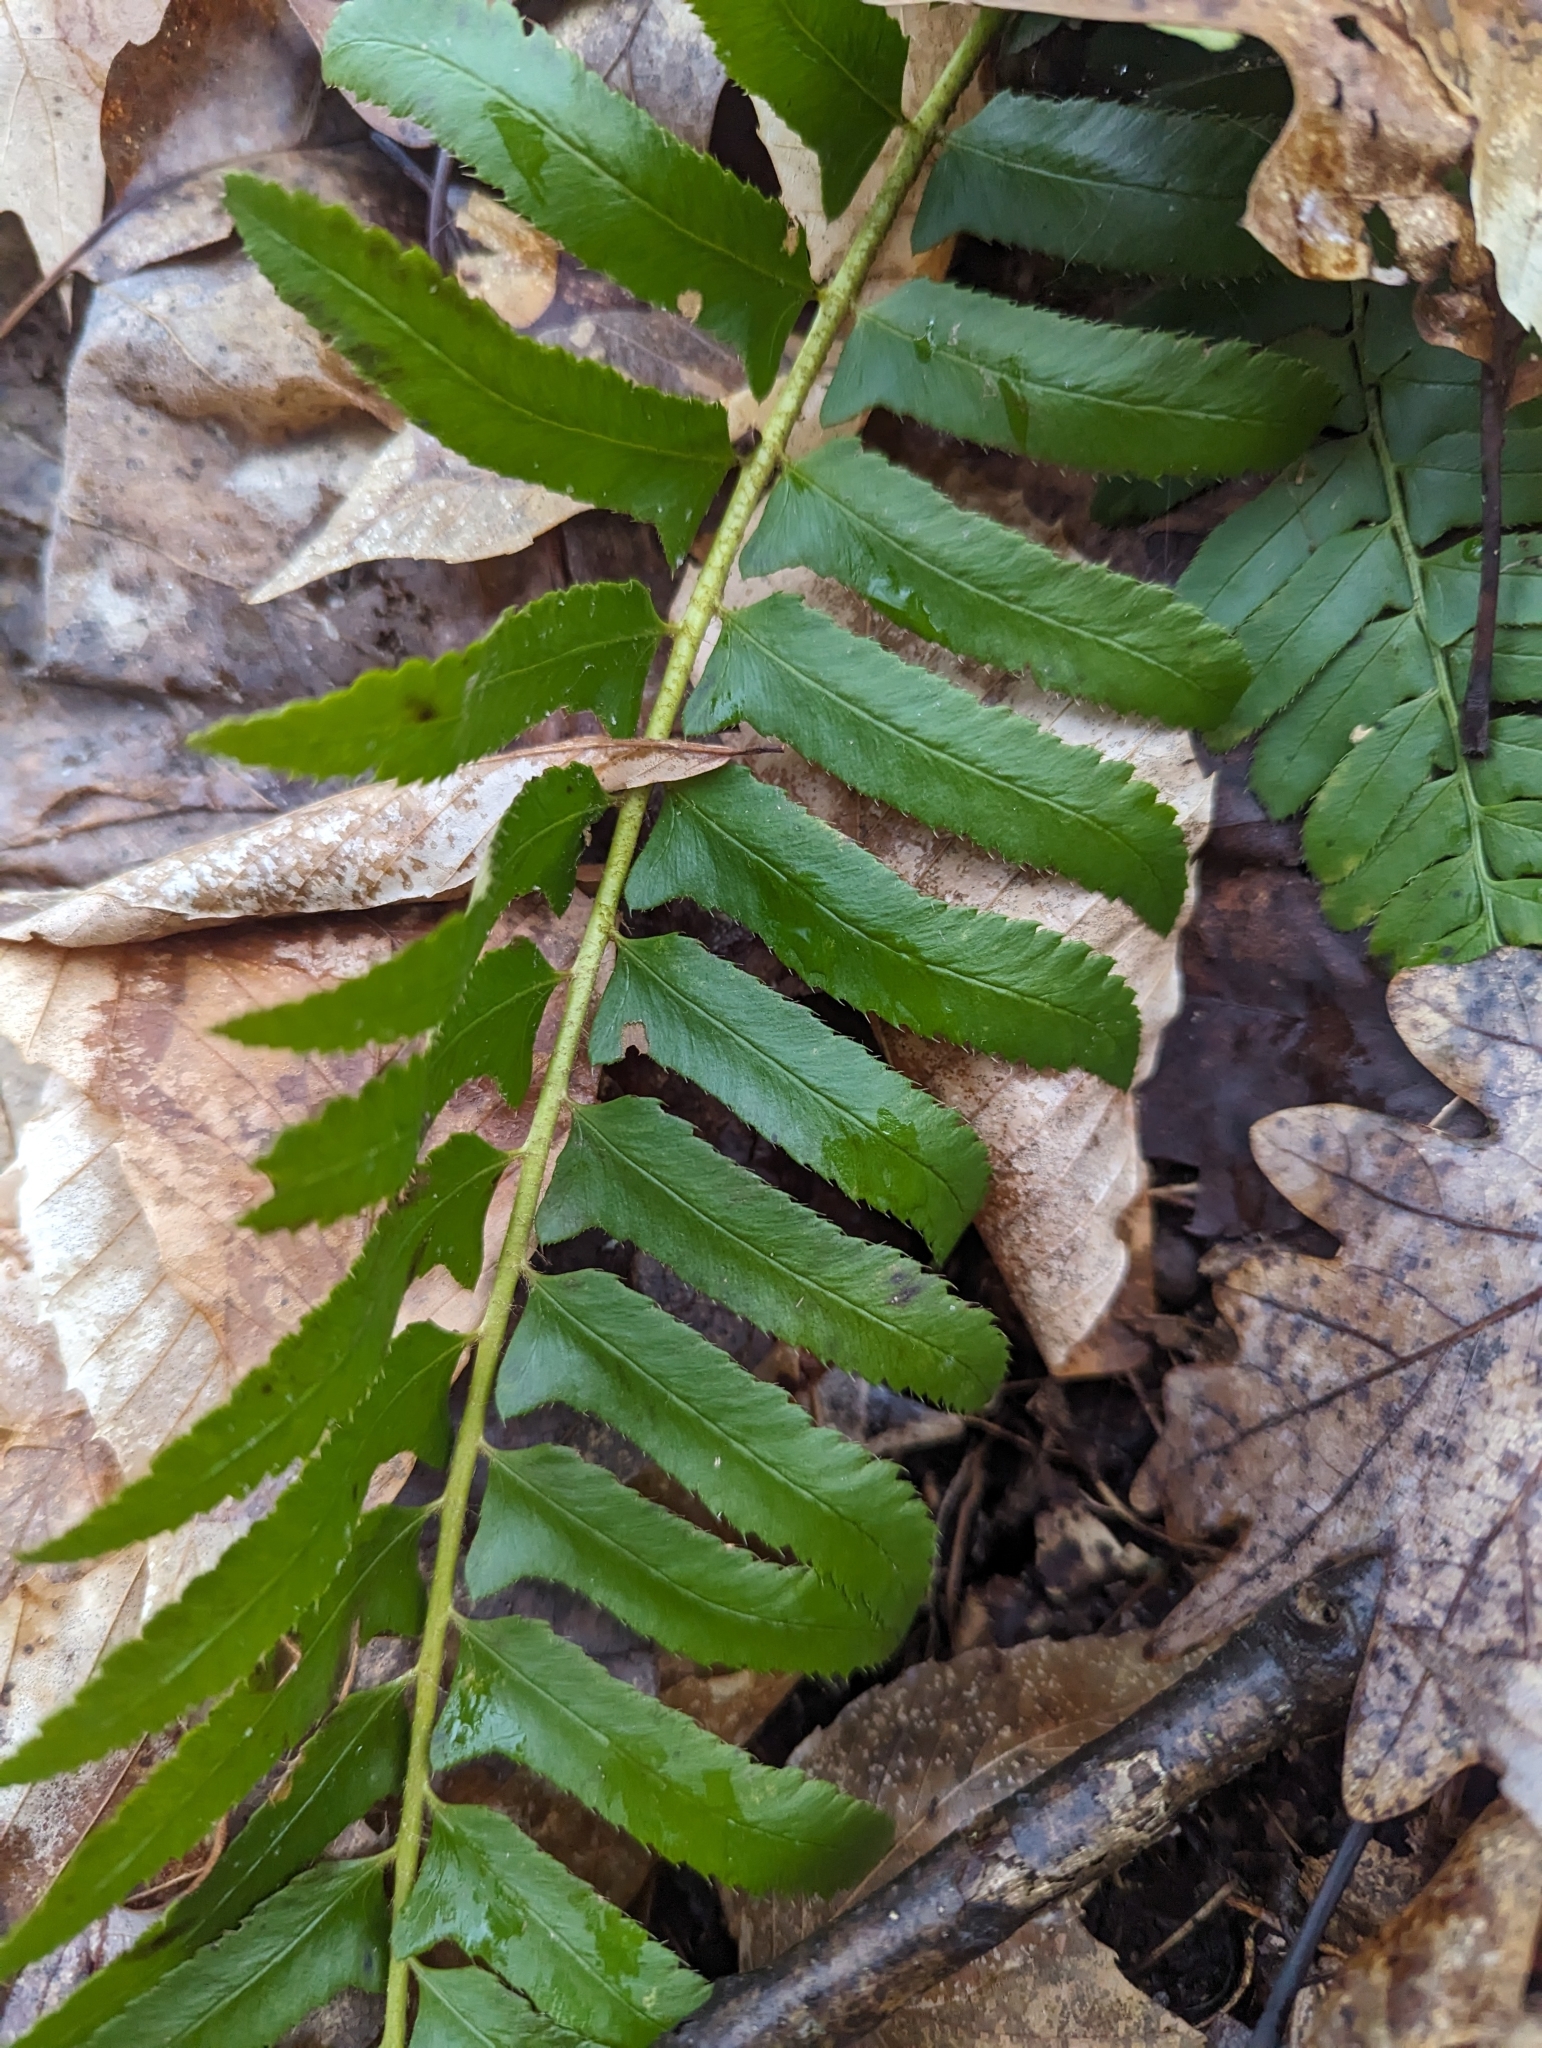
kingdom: Plantae
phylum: Tracheophyta
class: Polypodiopsida
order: Polypodiales
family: Dryopteridaceae
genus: Polystichum
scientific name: Polystichum acrostichoides
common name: Christmas fern
